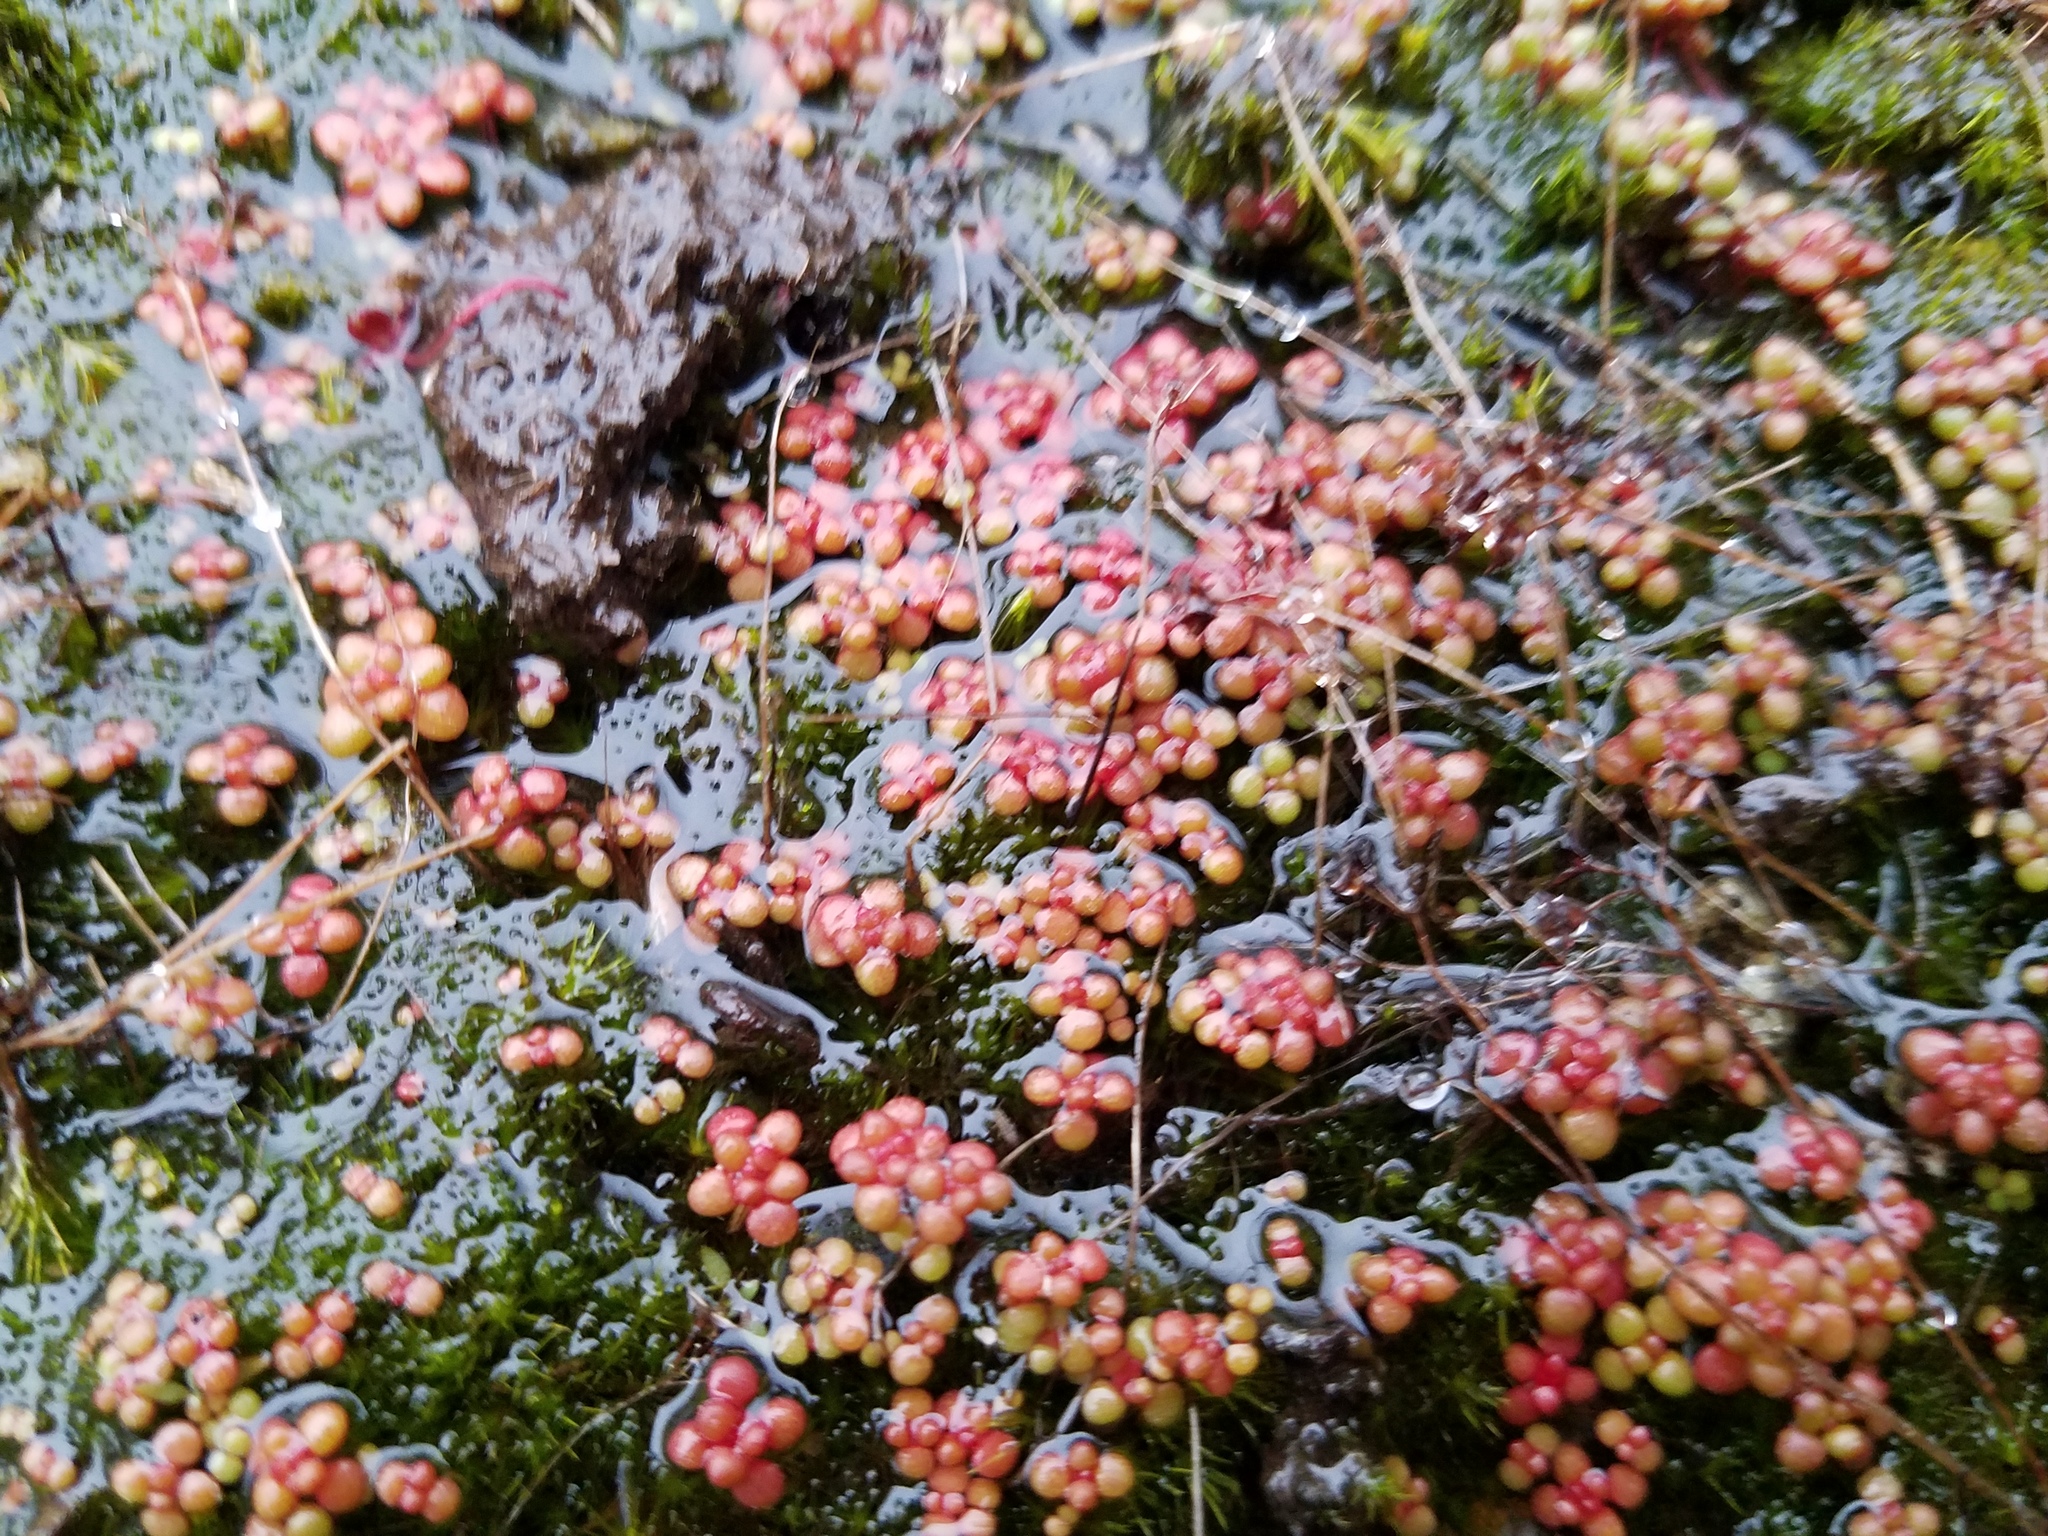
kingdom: Plantae
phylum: Tracheophyta
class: Magnoliopsida
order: Saxifragales
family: Crassulaceae
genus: Sedum
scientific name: Sedum smallii
